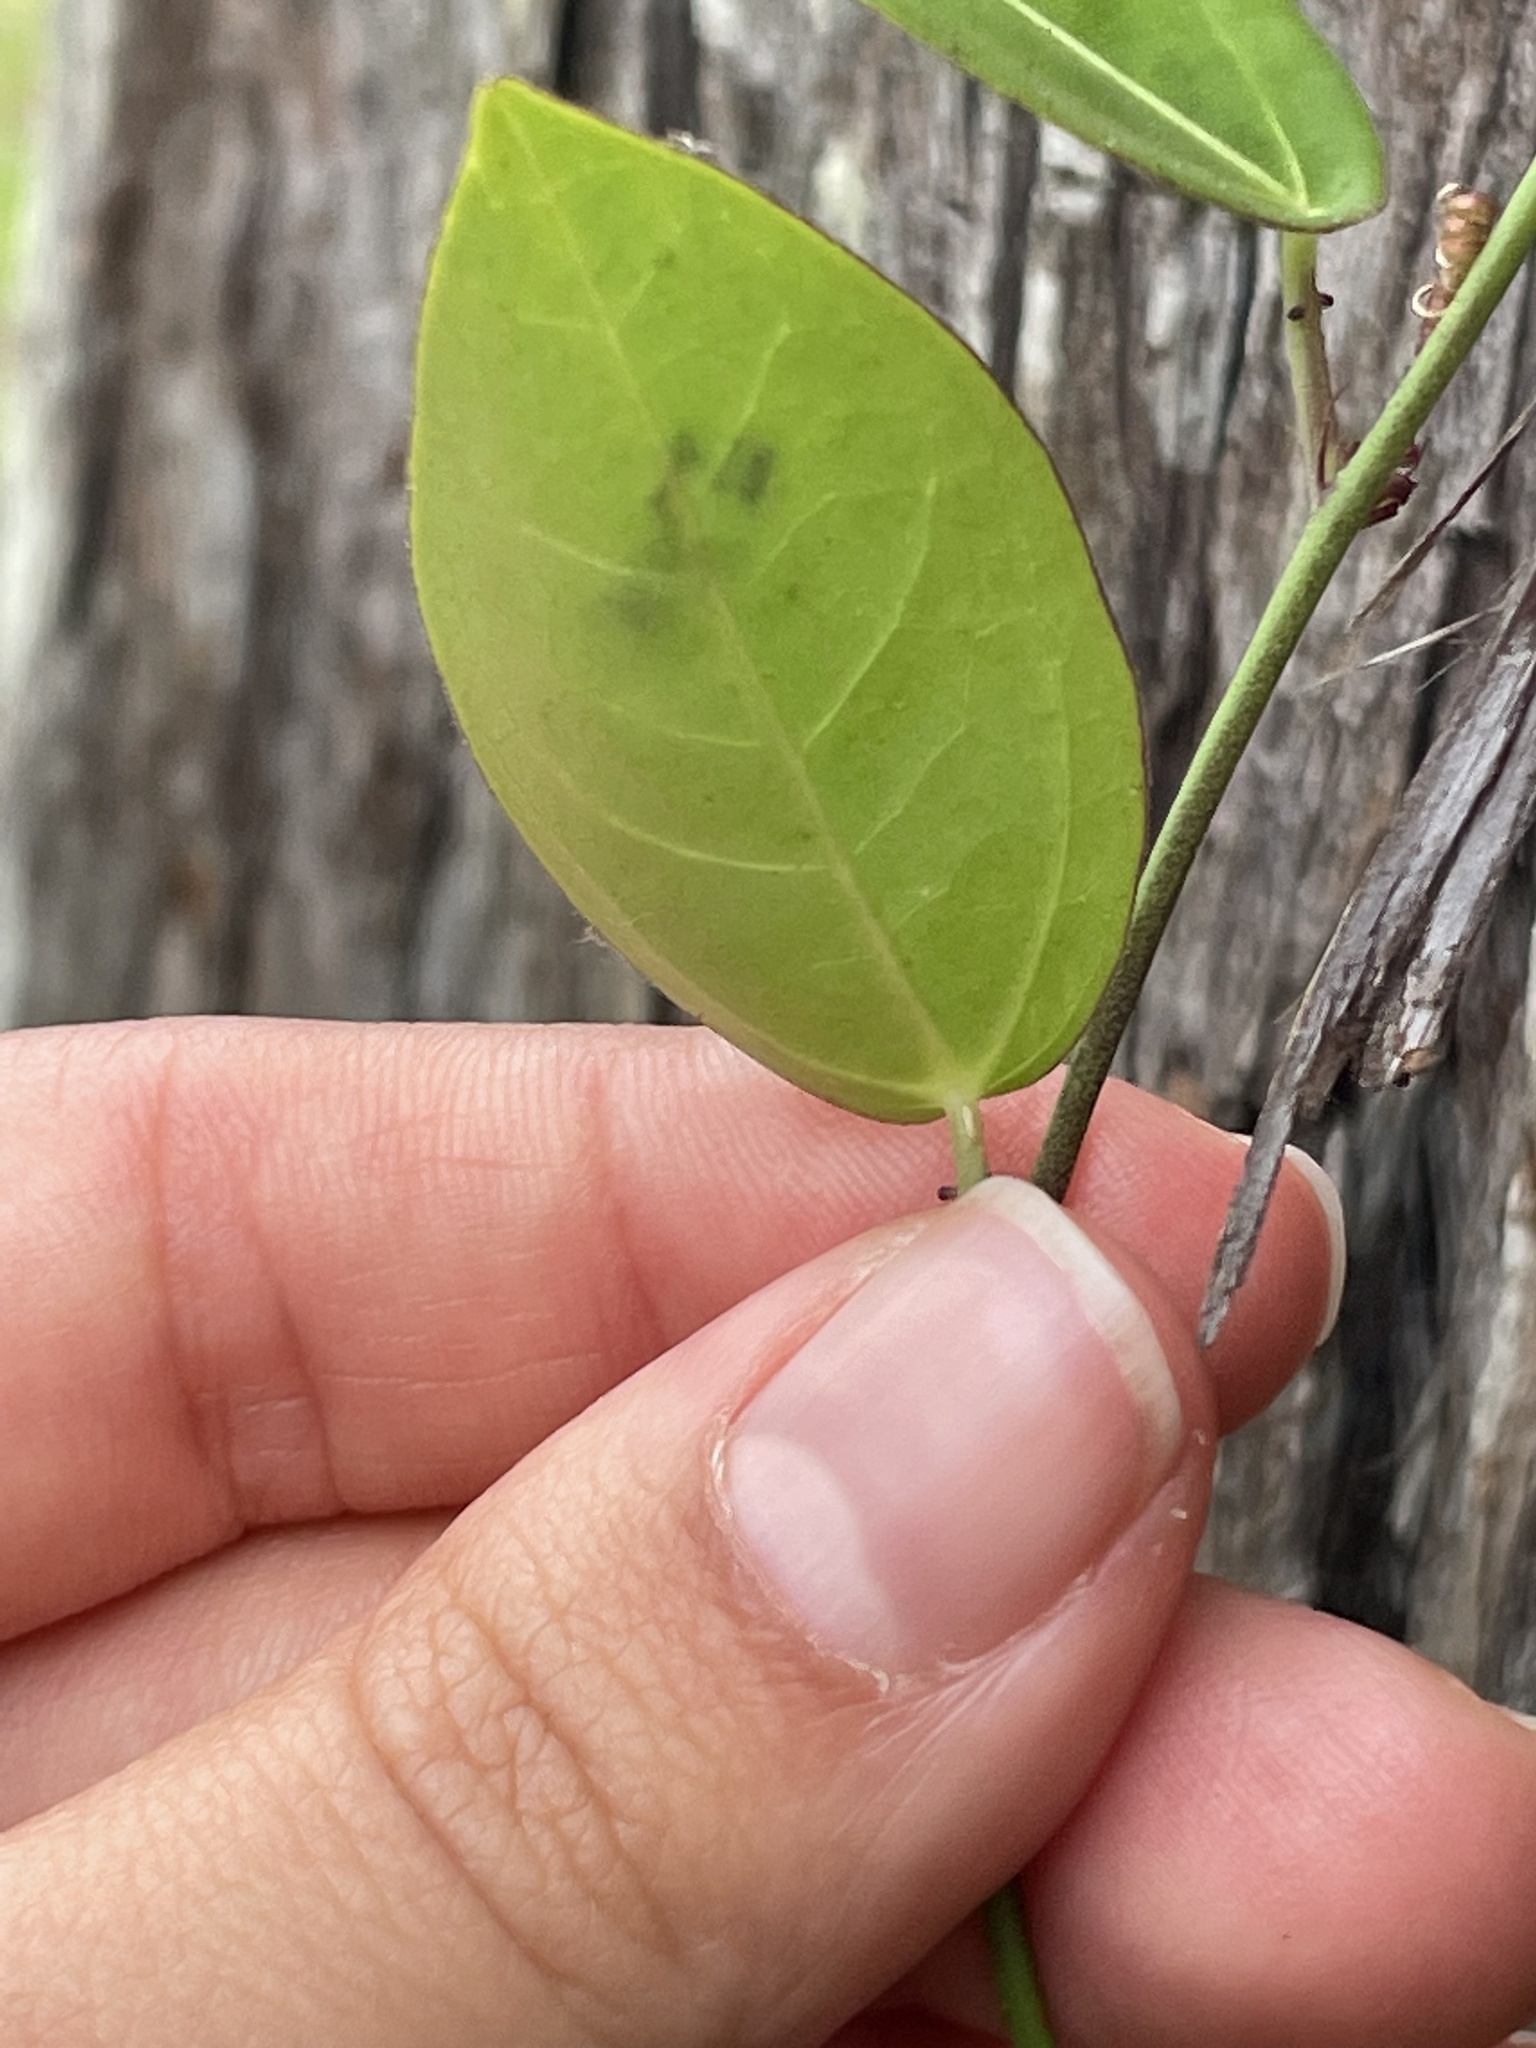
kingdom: Plantae
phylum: Tracheophyta
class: Magnoliopsida
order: Malpighiales
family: Passifloraceae
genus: Passiflora
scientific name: Passiflora pallida
